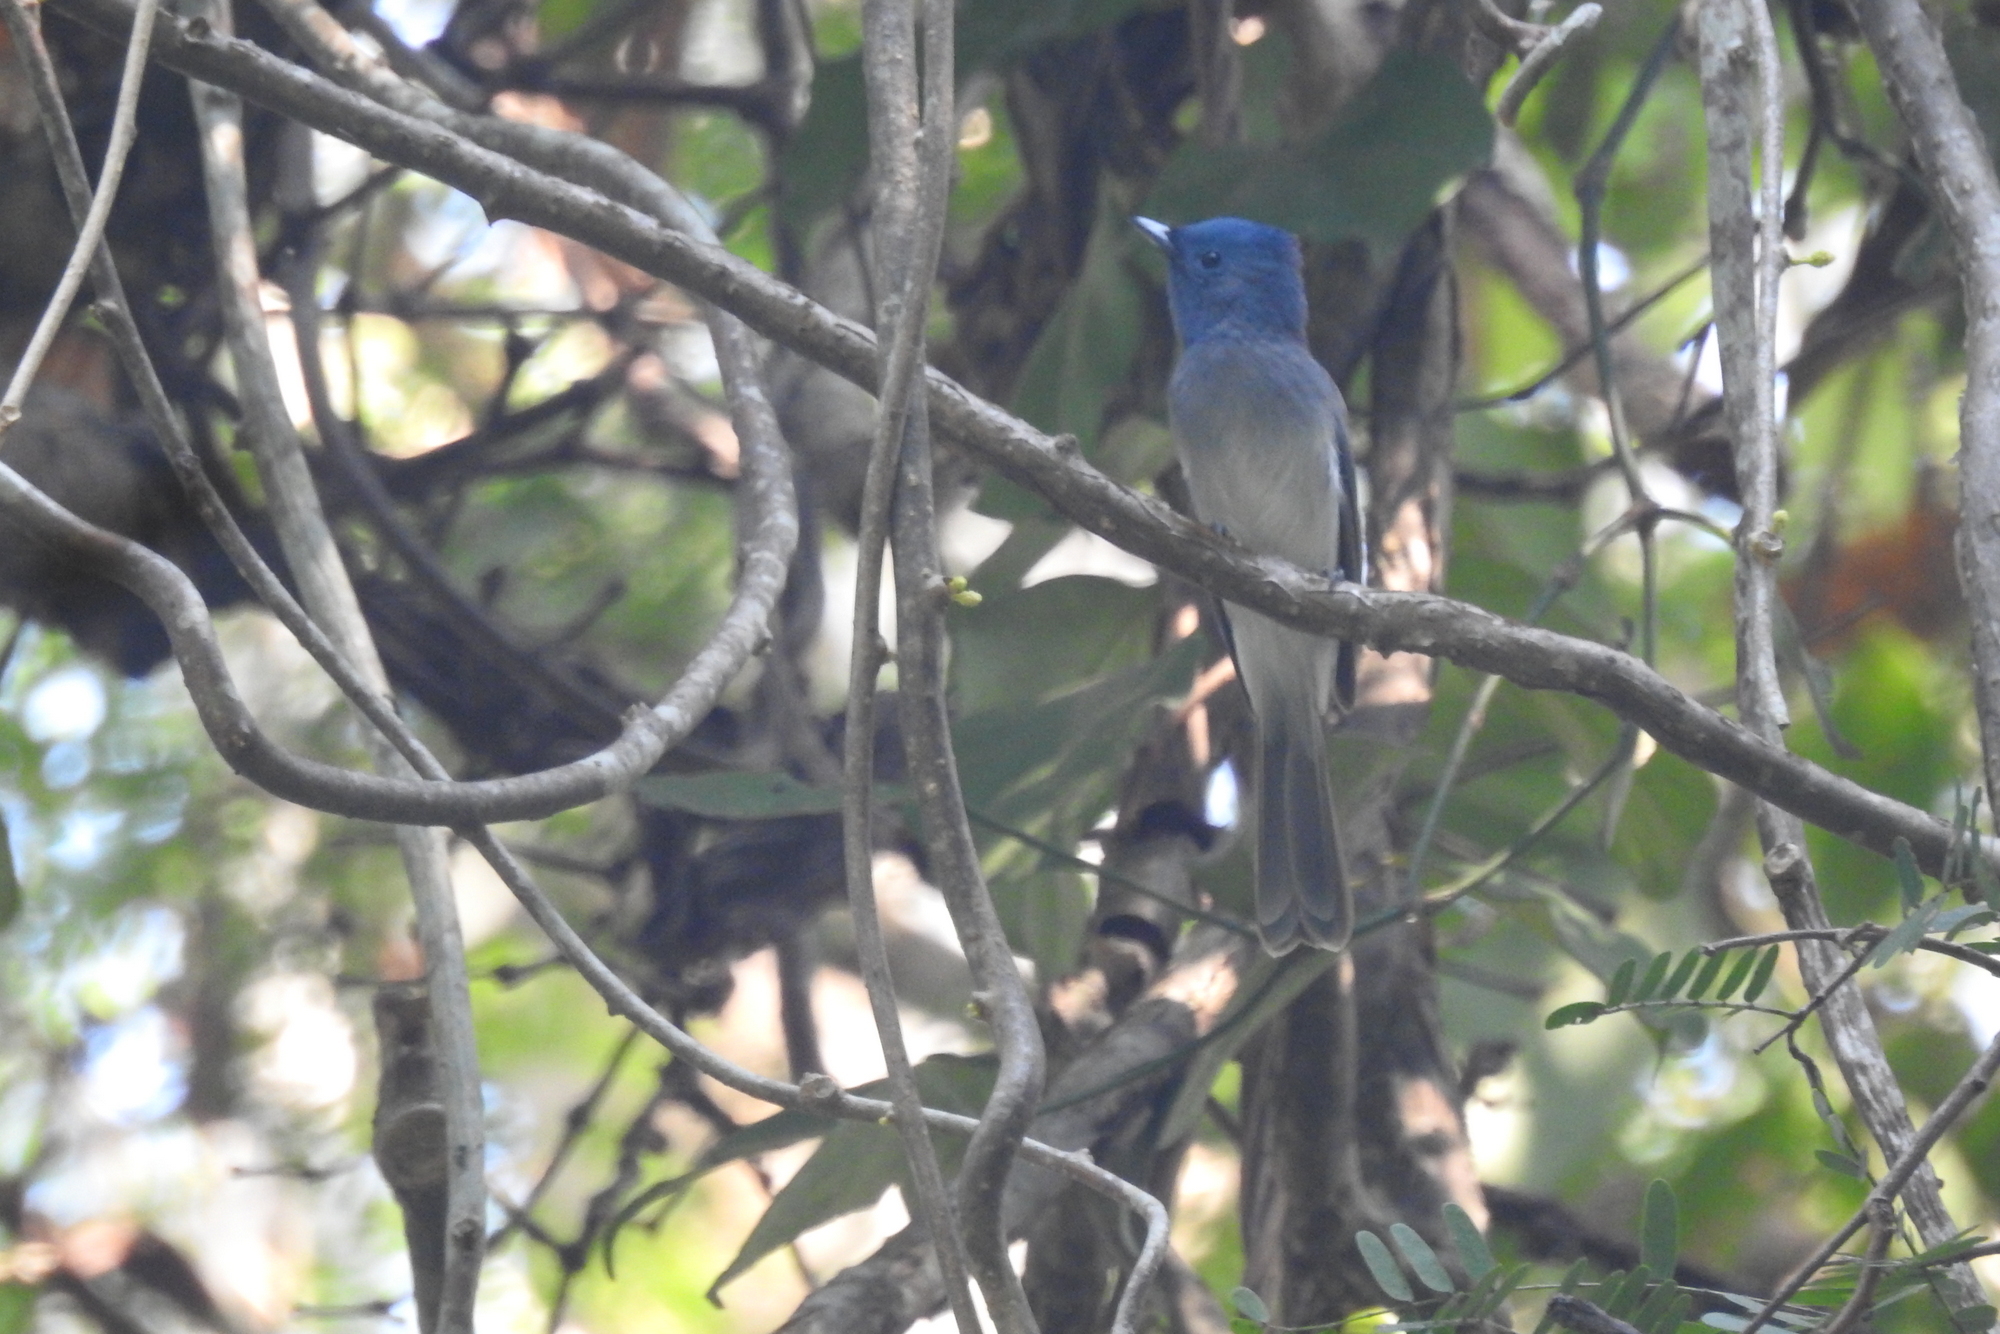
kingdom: Animalia
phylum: Chordata
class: Aves
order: Passeriformes
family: Monarchidae
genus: Hypothymis
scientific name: Hypothymis azurea
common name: Black-naped monarch
